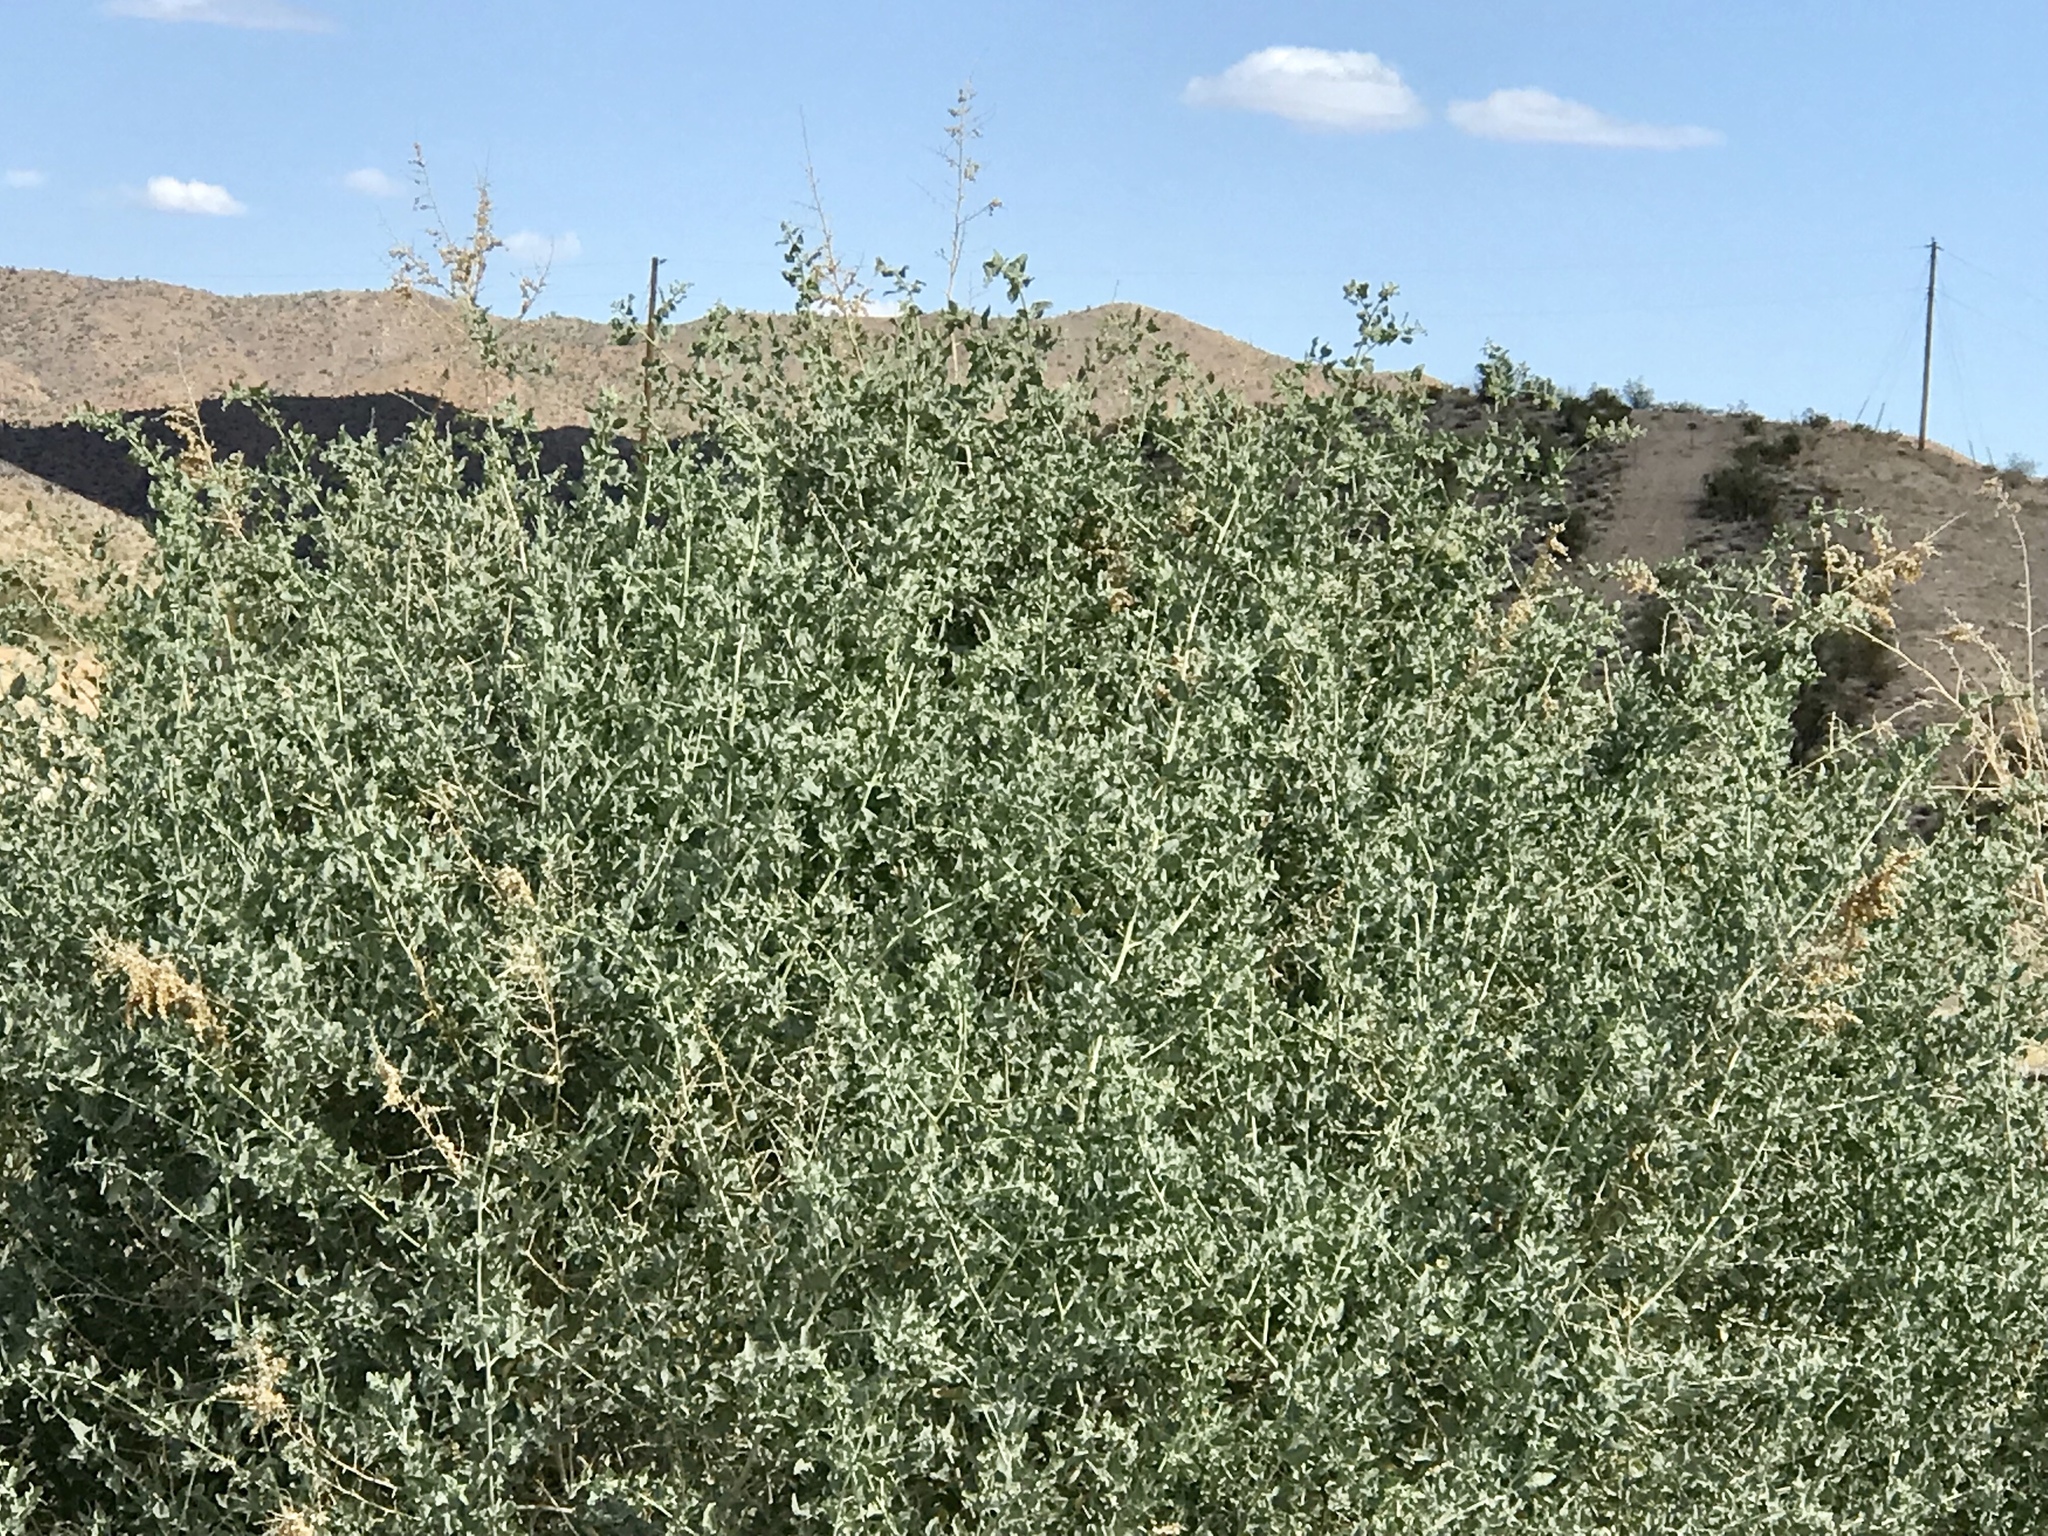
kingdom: Plantae
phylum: Tracheophyta
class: Magnoliopsida
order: Caryophyllales
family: Amaranthaceae
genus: Atriplex
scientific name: Atriplex lentiformis
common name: Big saltbush
